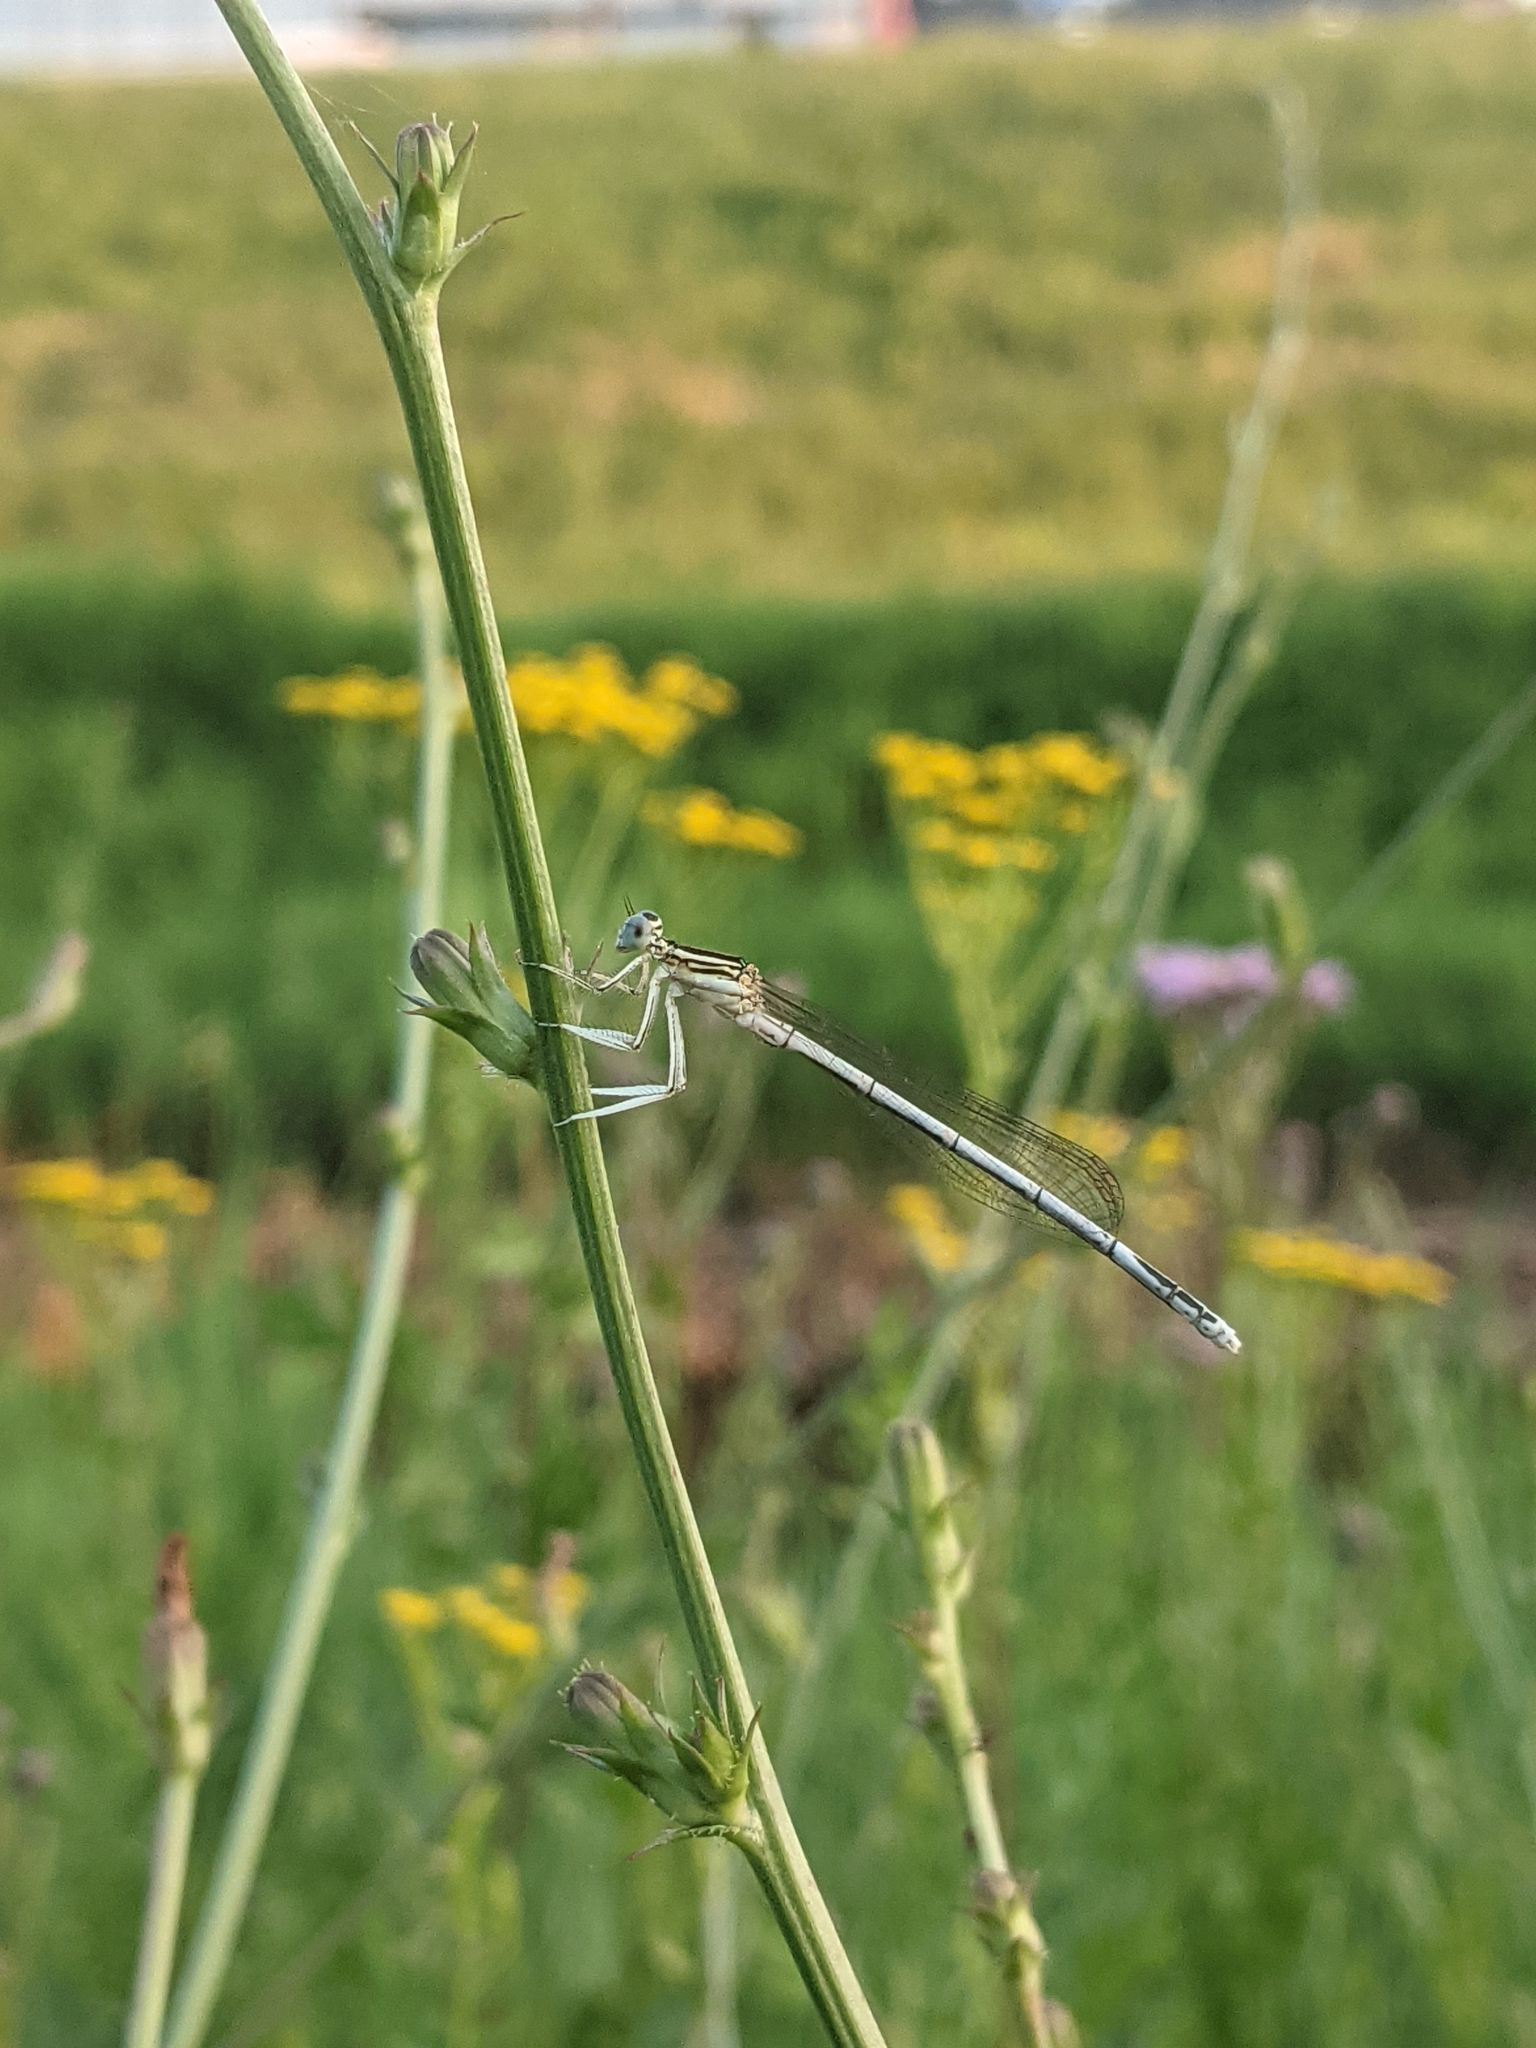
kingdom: Animalia
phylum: Arthropoda
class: Insecta
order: Odonata
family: Platycnemididae
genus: Platycnemis
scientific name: Platycnemis pennipes
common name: White-legged damselfly
